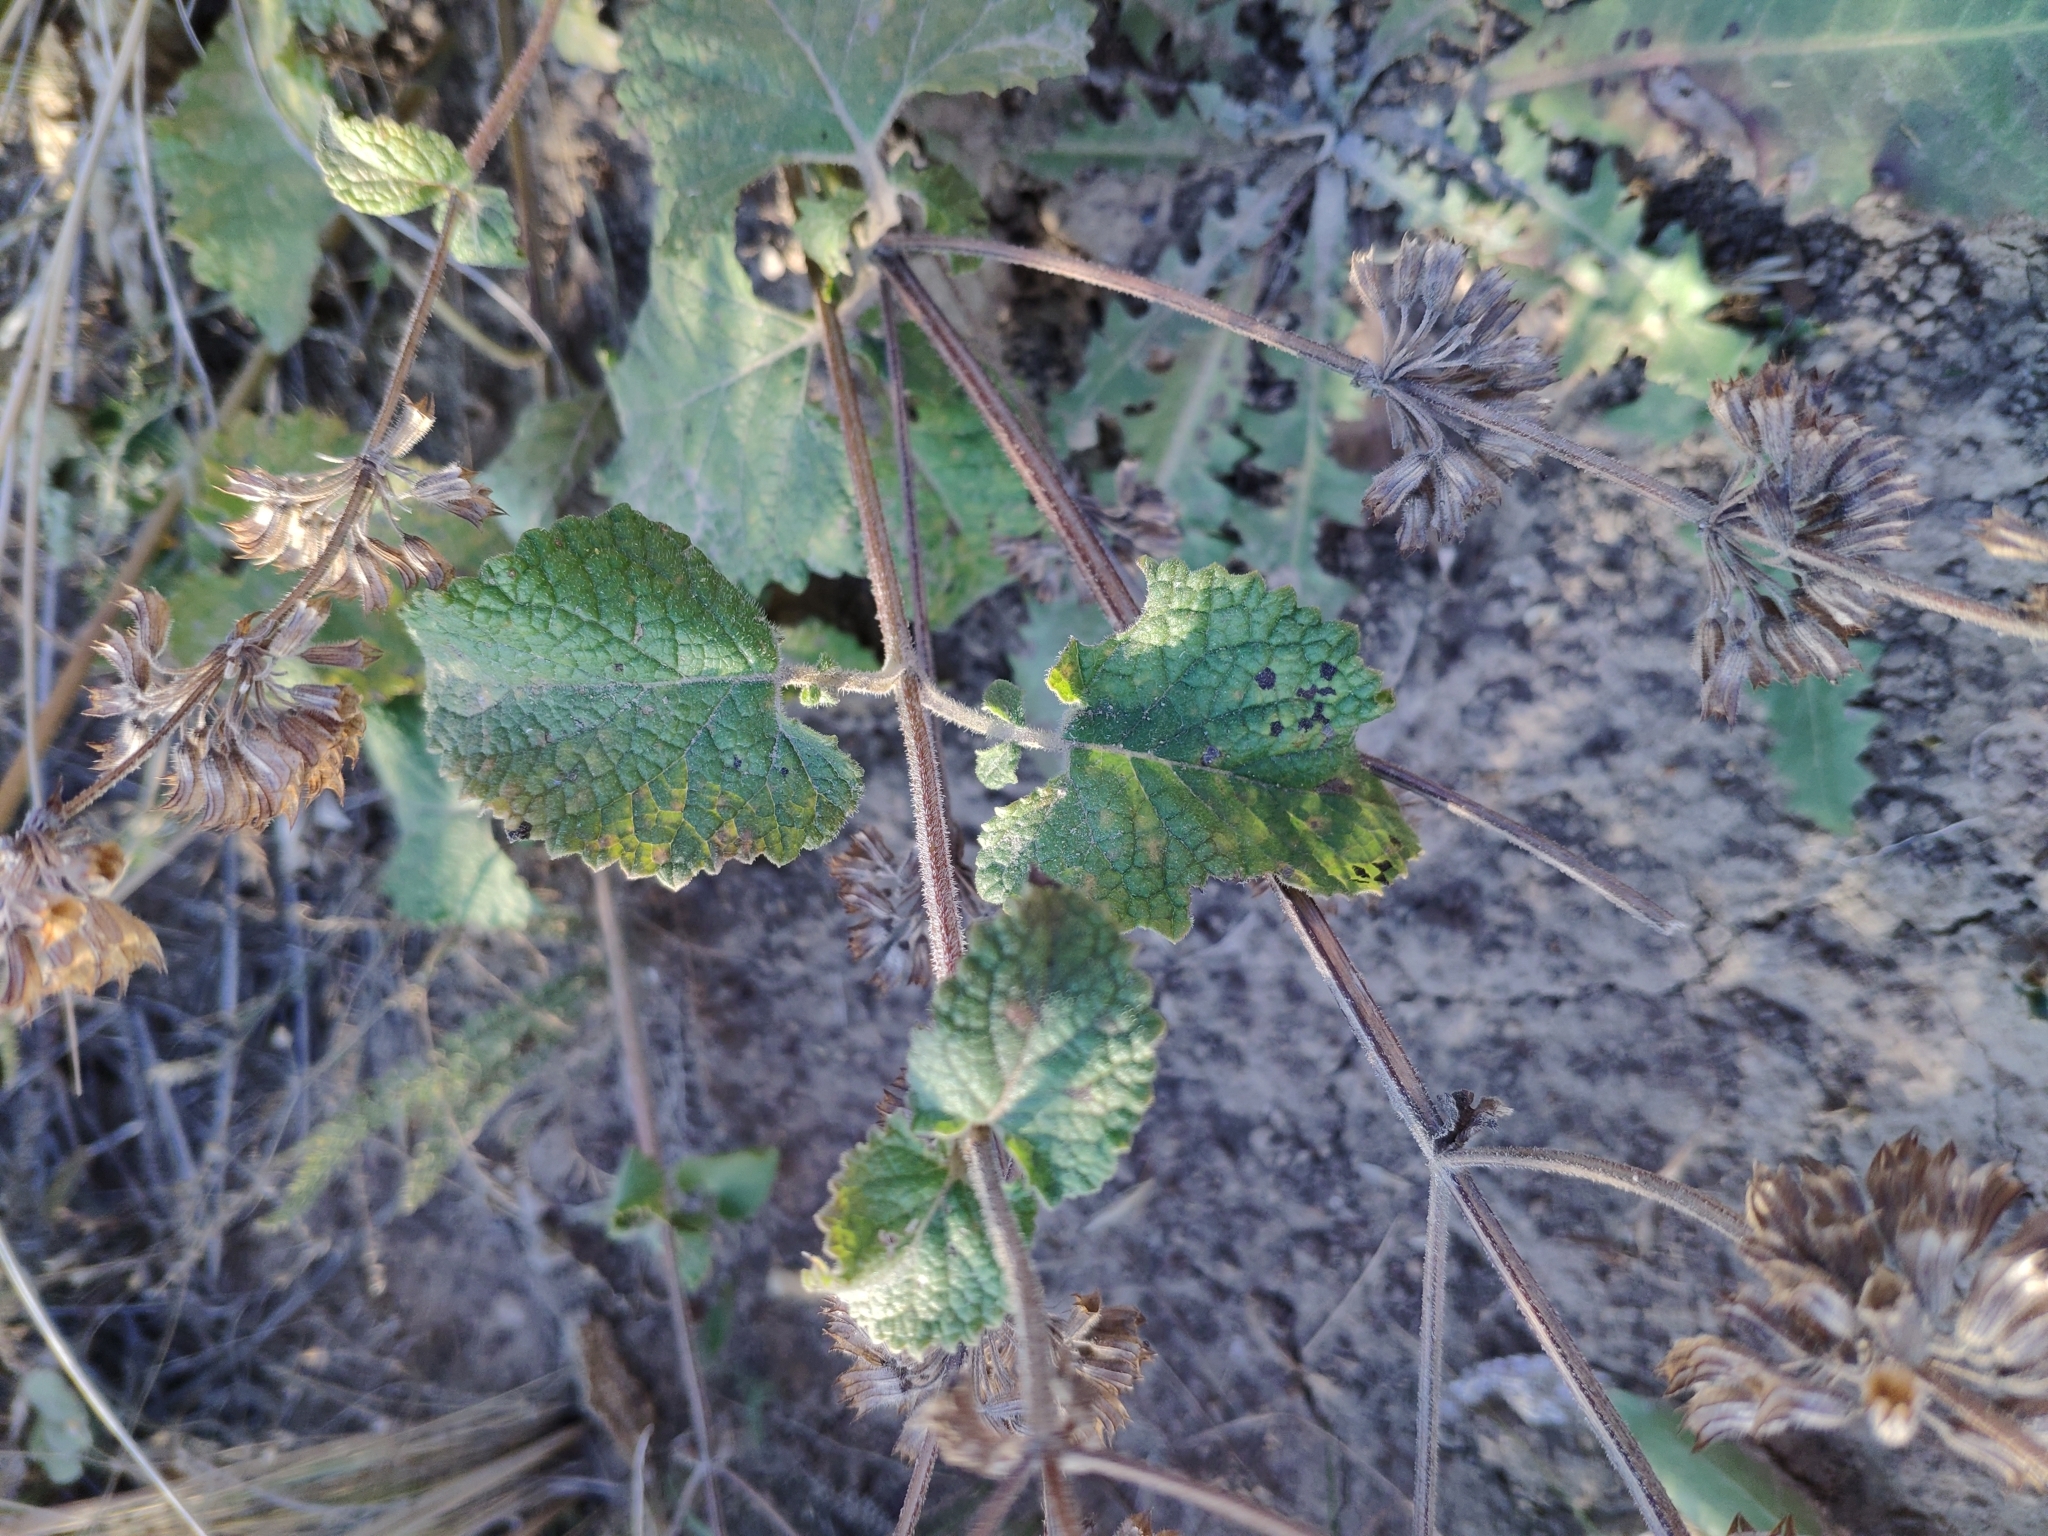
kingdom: Plantae
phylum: Tracheophyta
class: Magnoliopsida
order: Lamiales
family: Lamiaceae
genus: Salvia
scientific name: Salvia verticillata
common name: Whorled clary
